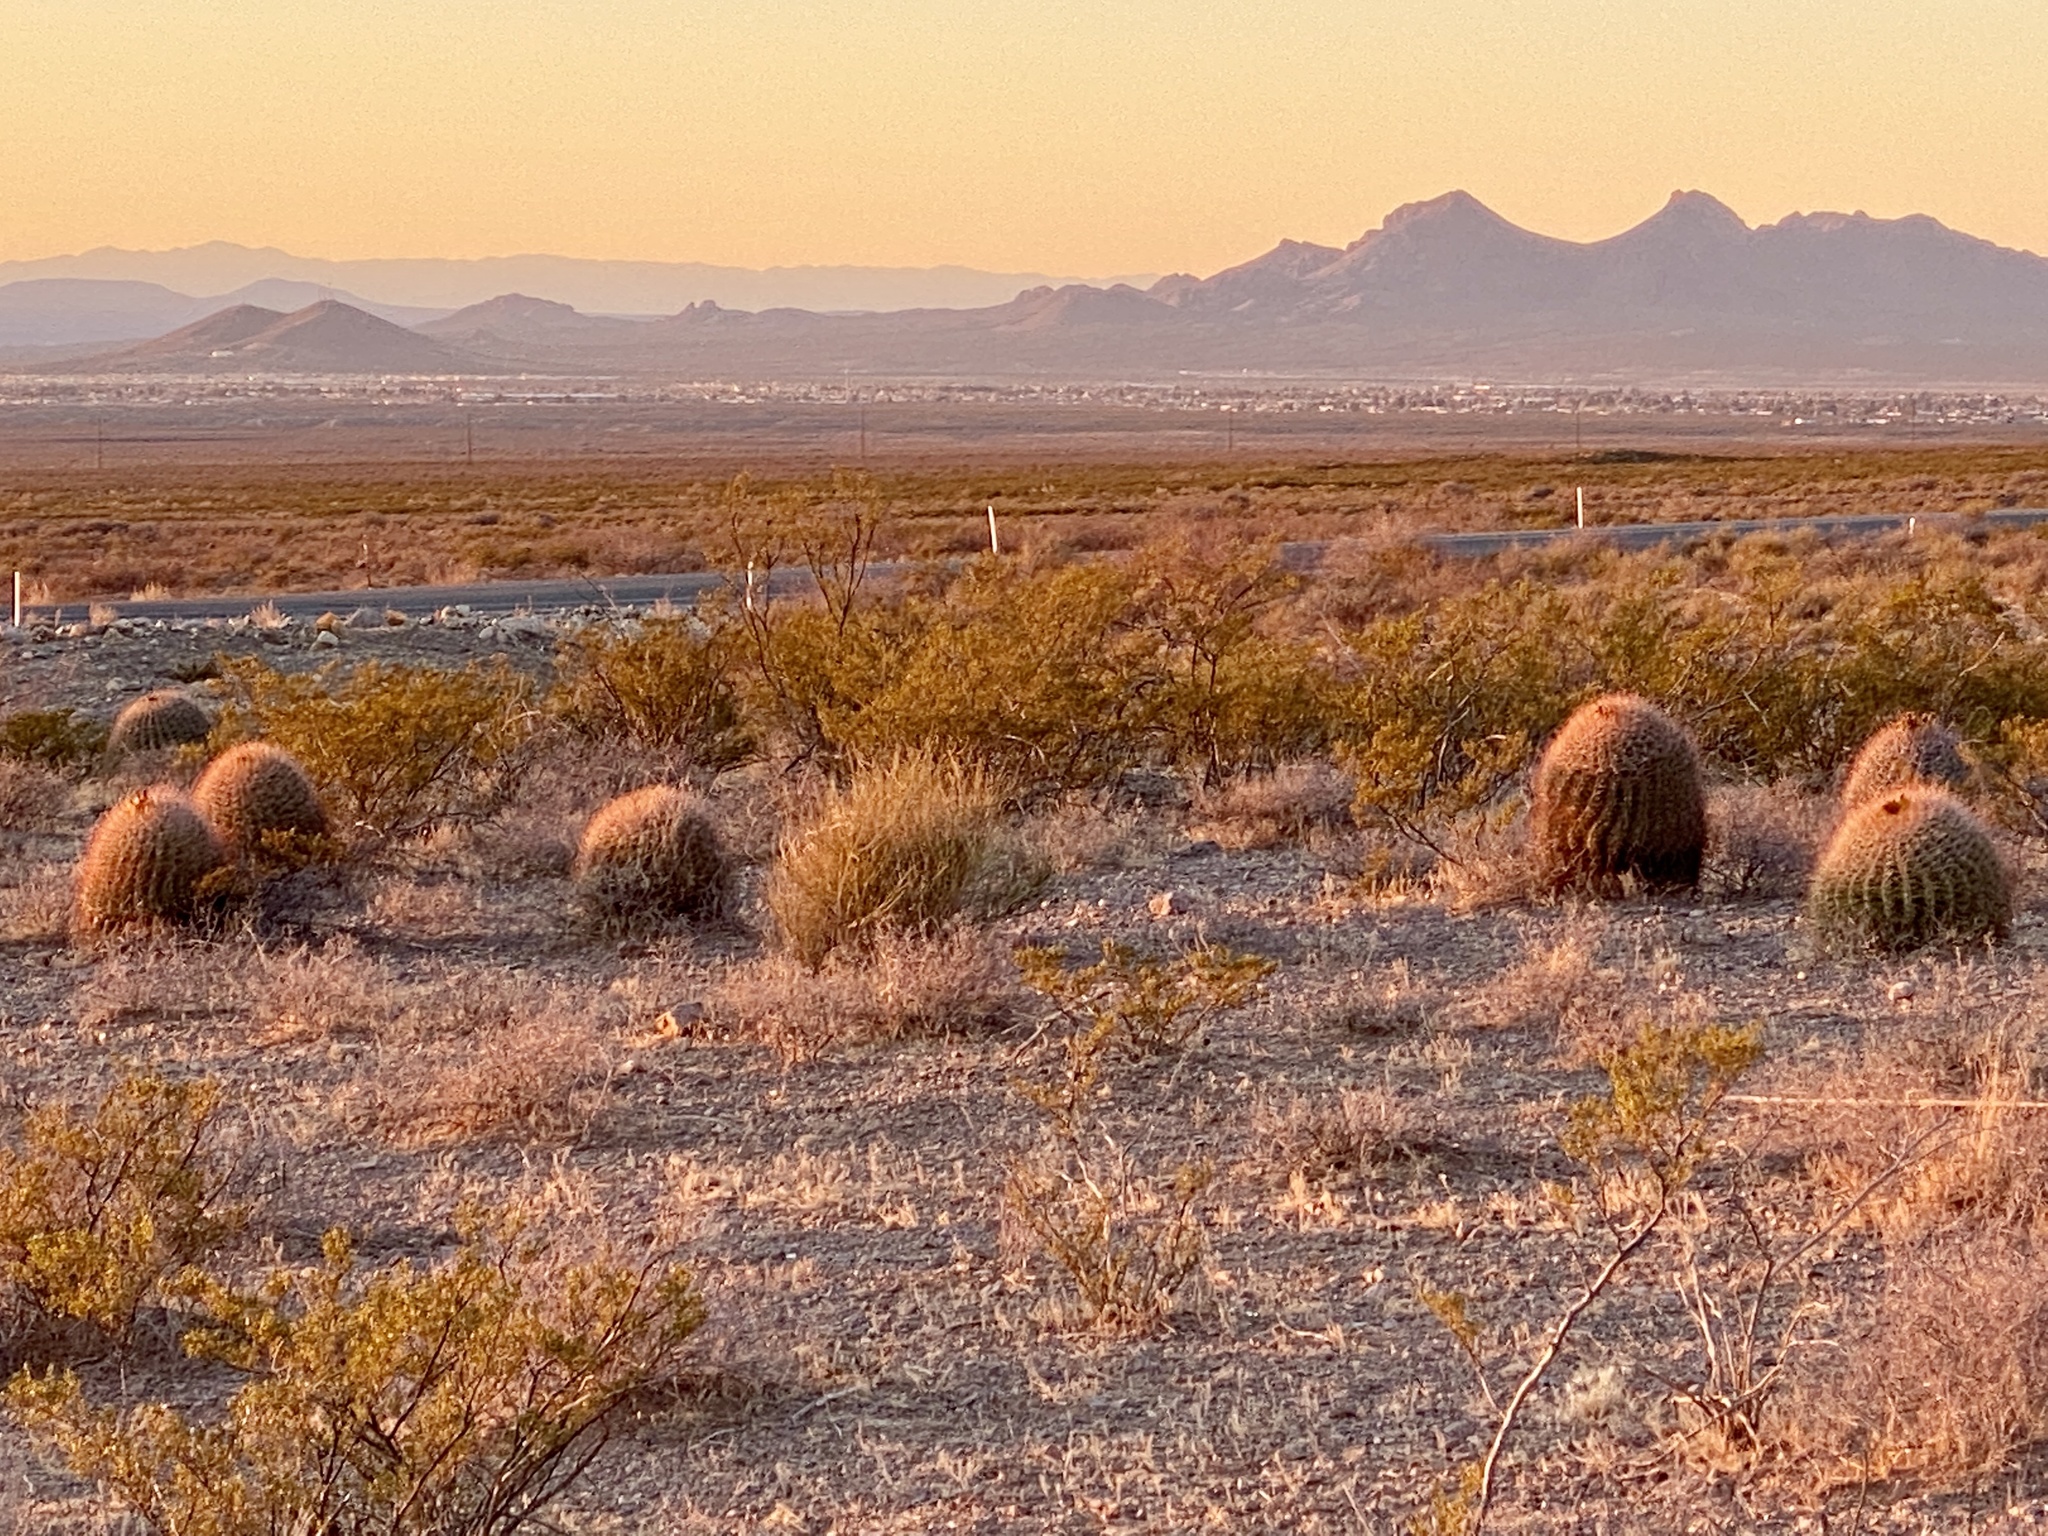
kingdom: Plantae
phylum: Tracheophyta
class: Magnoliopsida
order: Caryophyllales
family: Cactaceae
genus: Ferocactus
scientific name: Ferocactus wislizeni
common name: Candy barrel cactus
